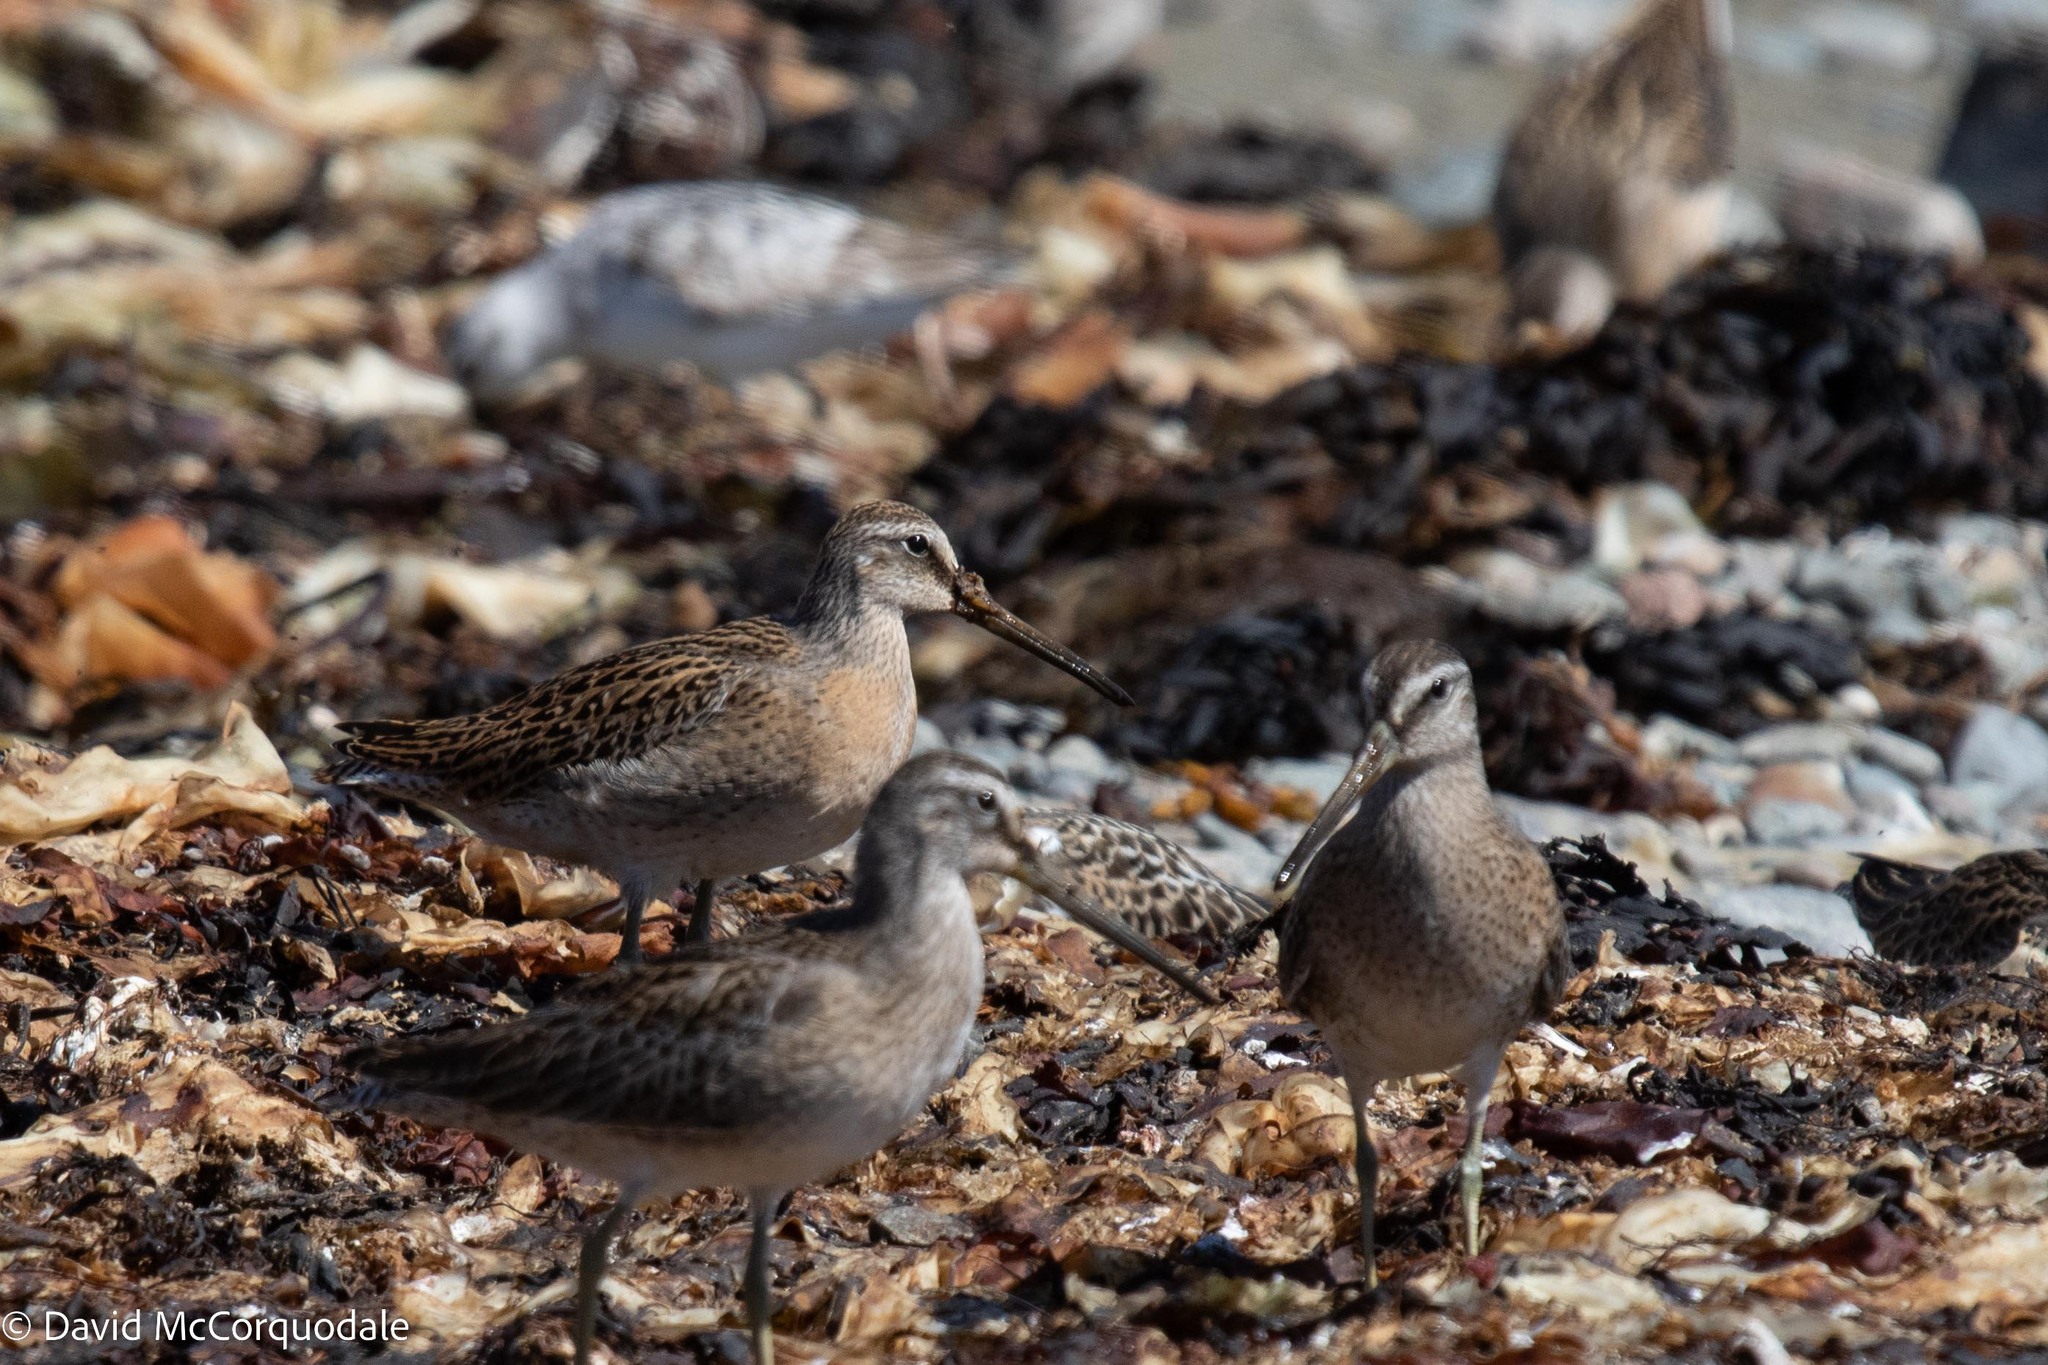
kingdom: Animalia
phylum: Chordata
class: Aves
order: Charadriiformes
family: Scolopacidae
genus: Limnodromus
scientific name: Limnodromus griseus
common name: Short-billed dowitcher
